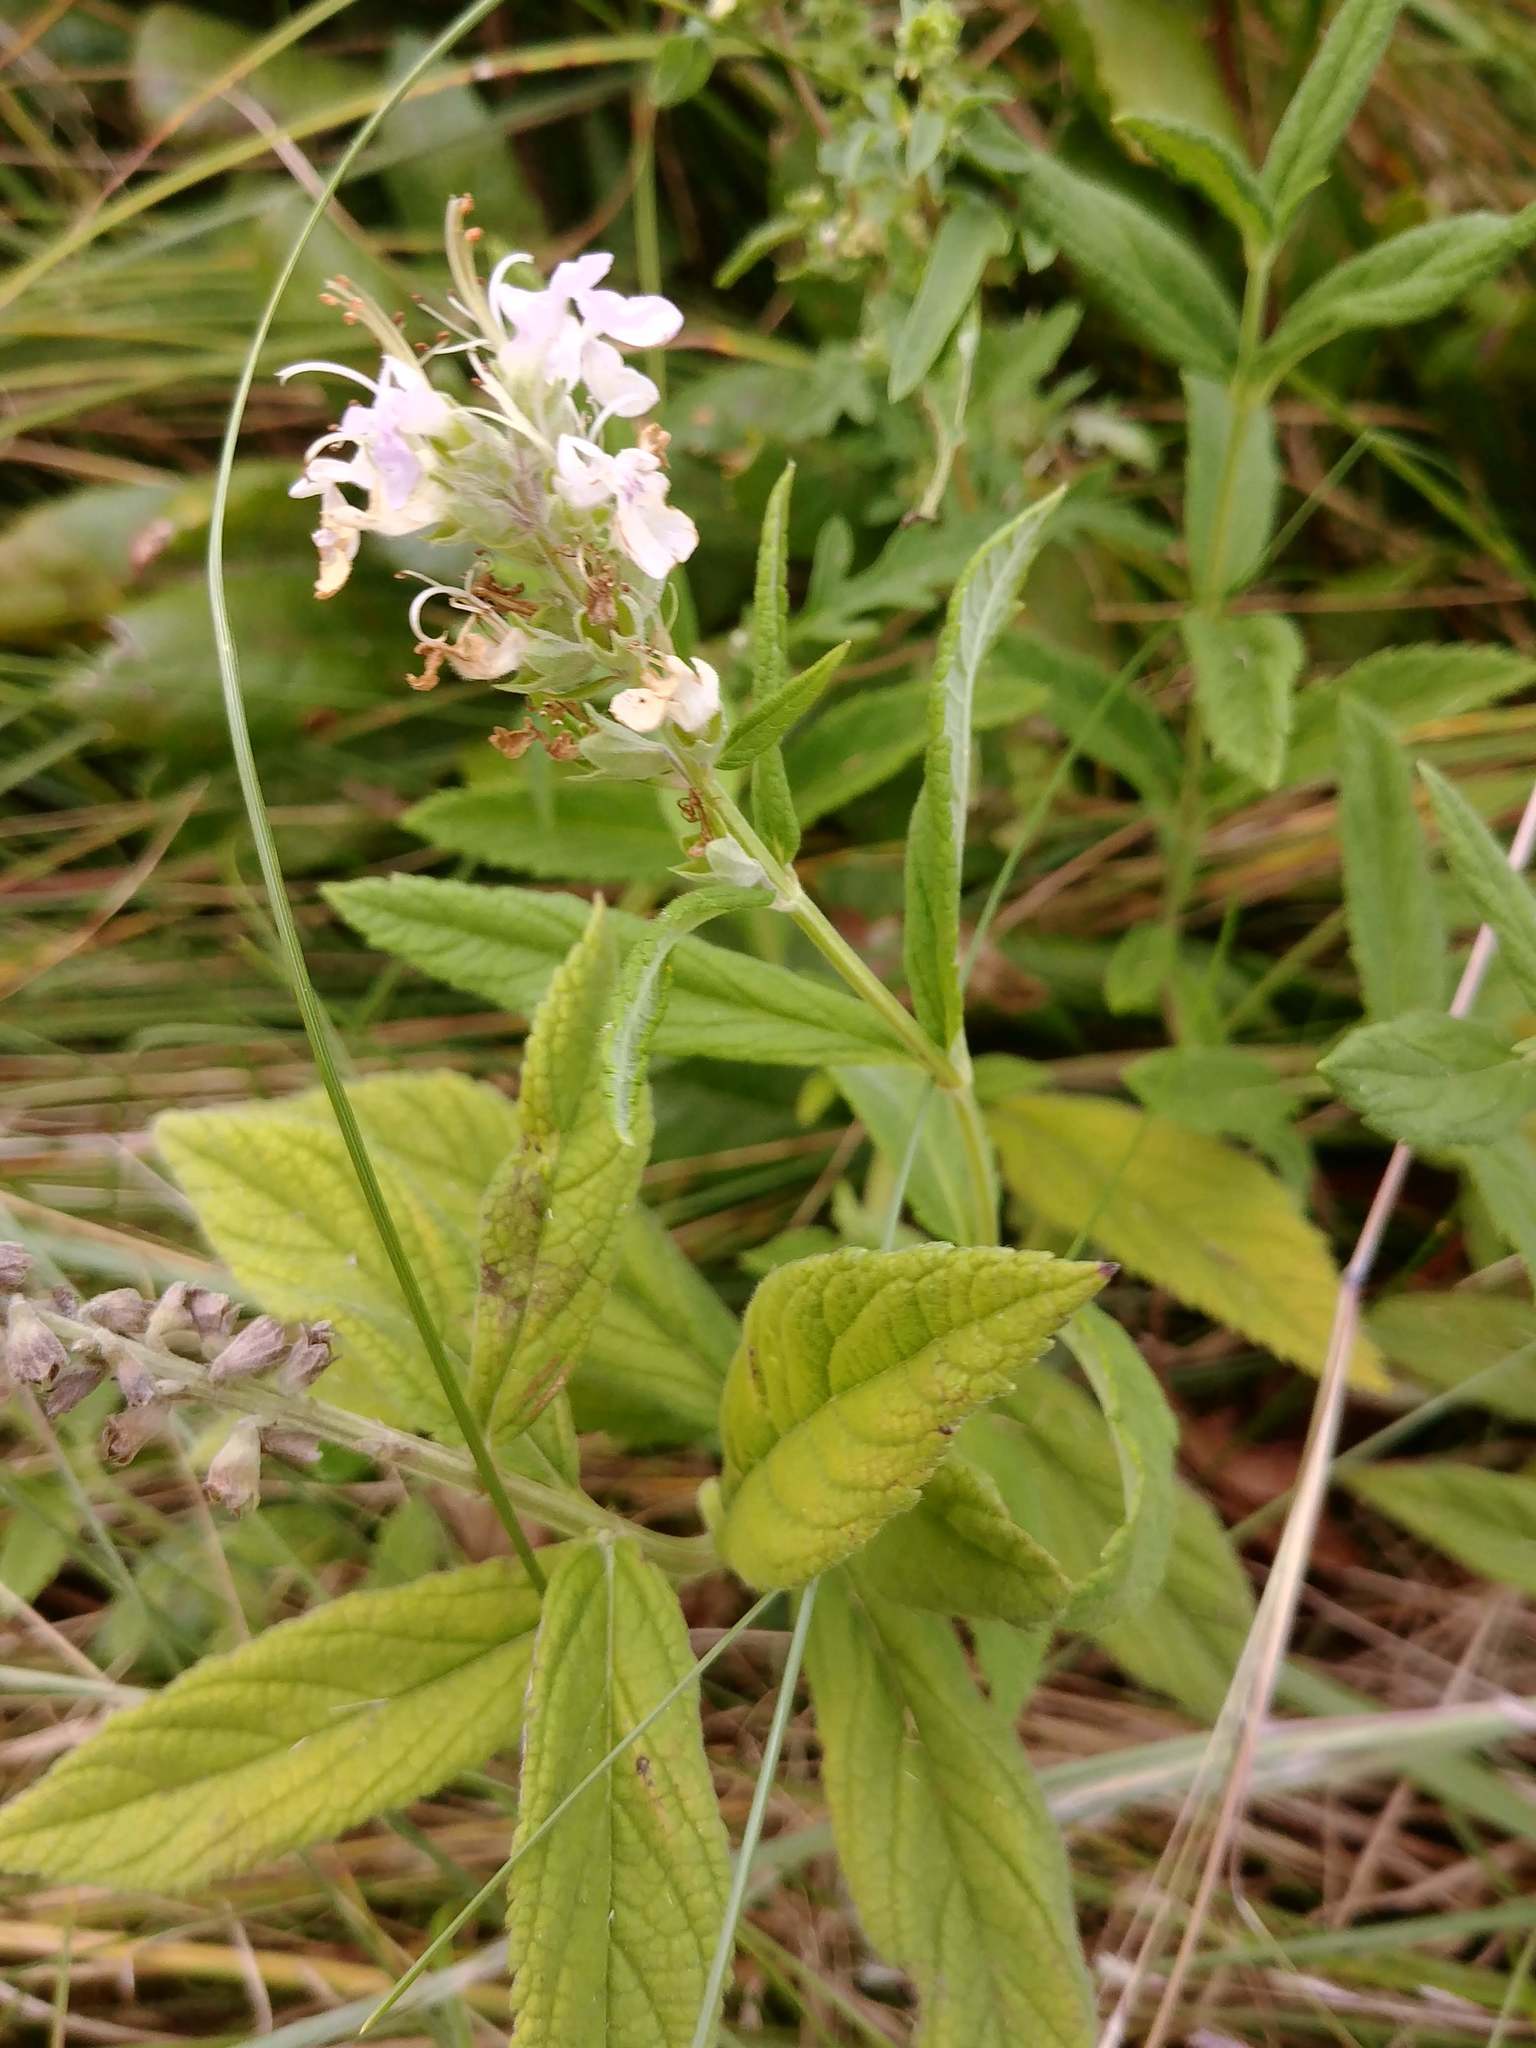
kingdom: Plantae
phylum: Tracheophyta
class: Magnoliopsida
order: Lamiales
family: Lamiaceae
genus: Teucrium
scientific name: Teucrium canadense
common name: American germander
